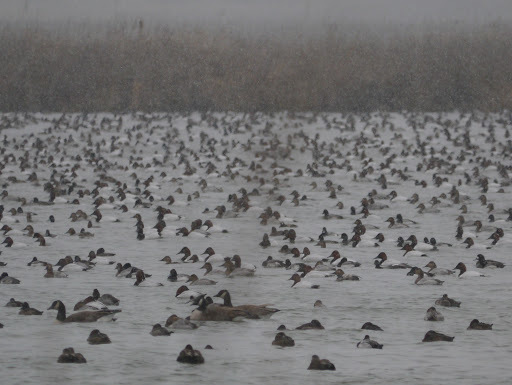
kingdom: Animalia
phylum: Chordata
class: Aves
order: Anseriformes
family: Anatidae
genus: Aythya
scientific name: Aythya valisineria
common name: Canvasback
